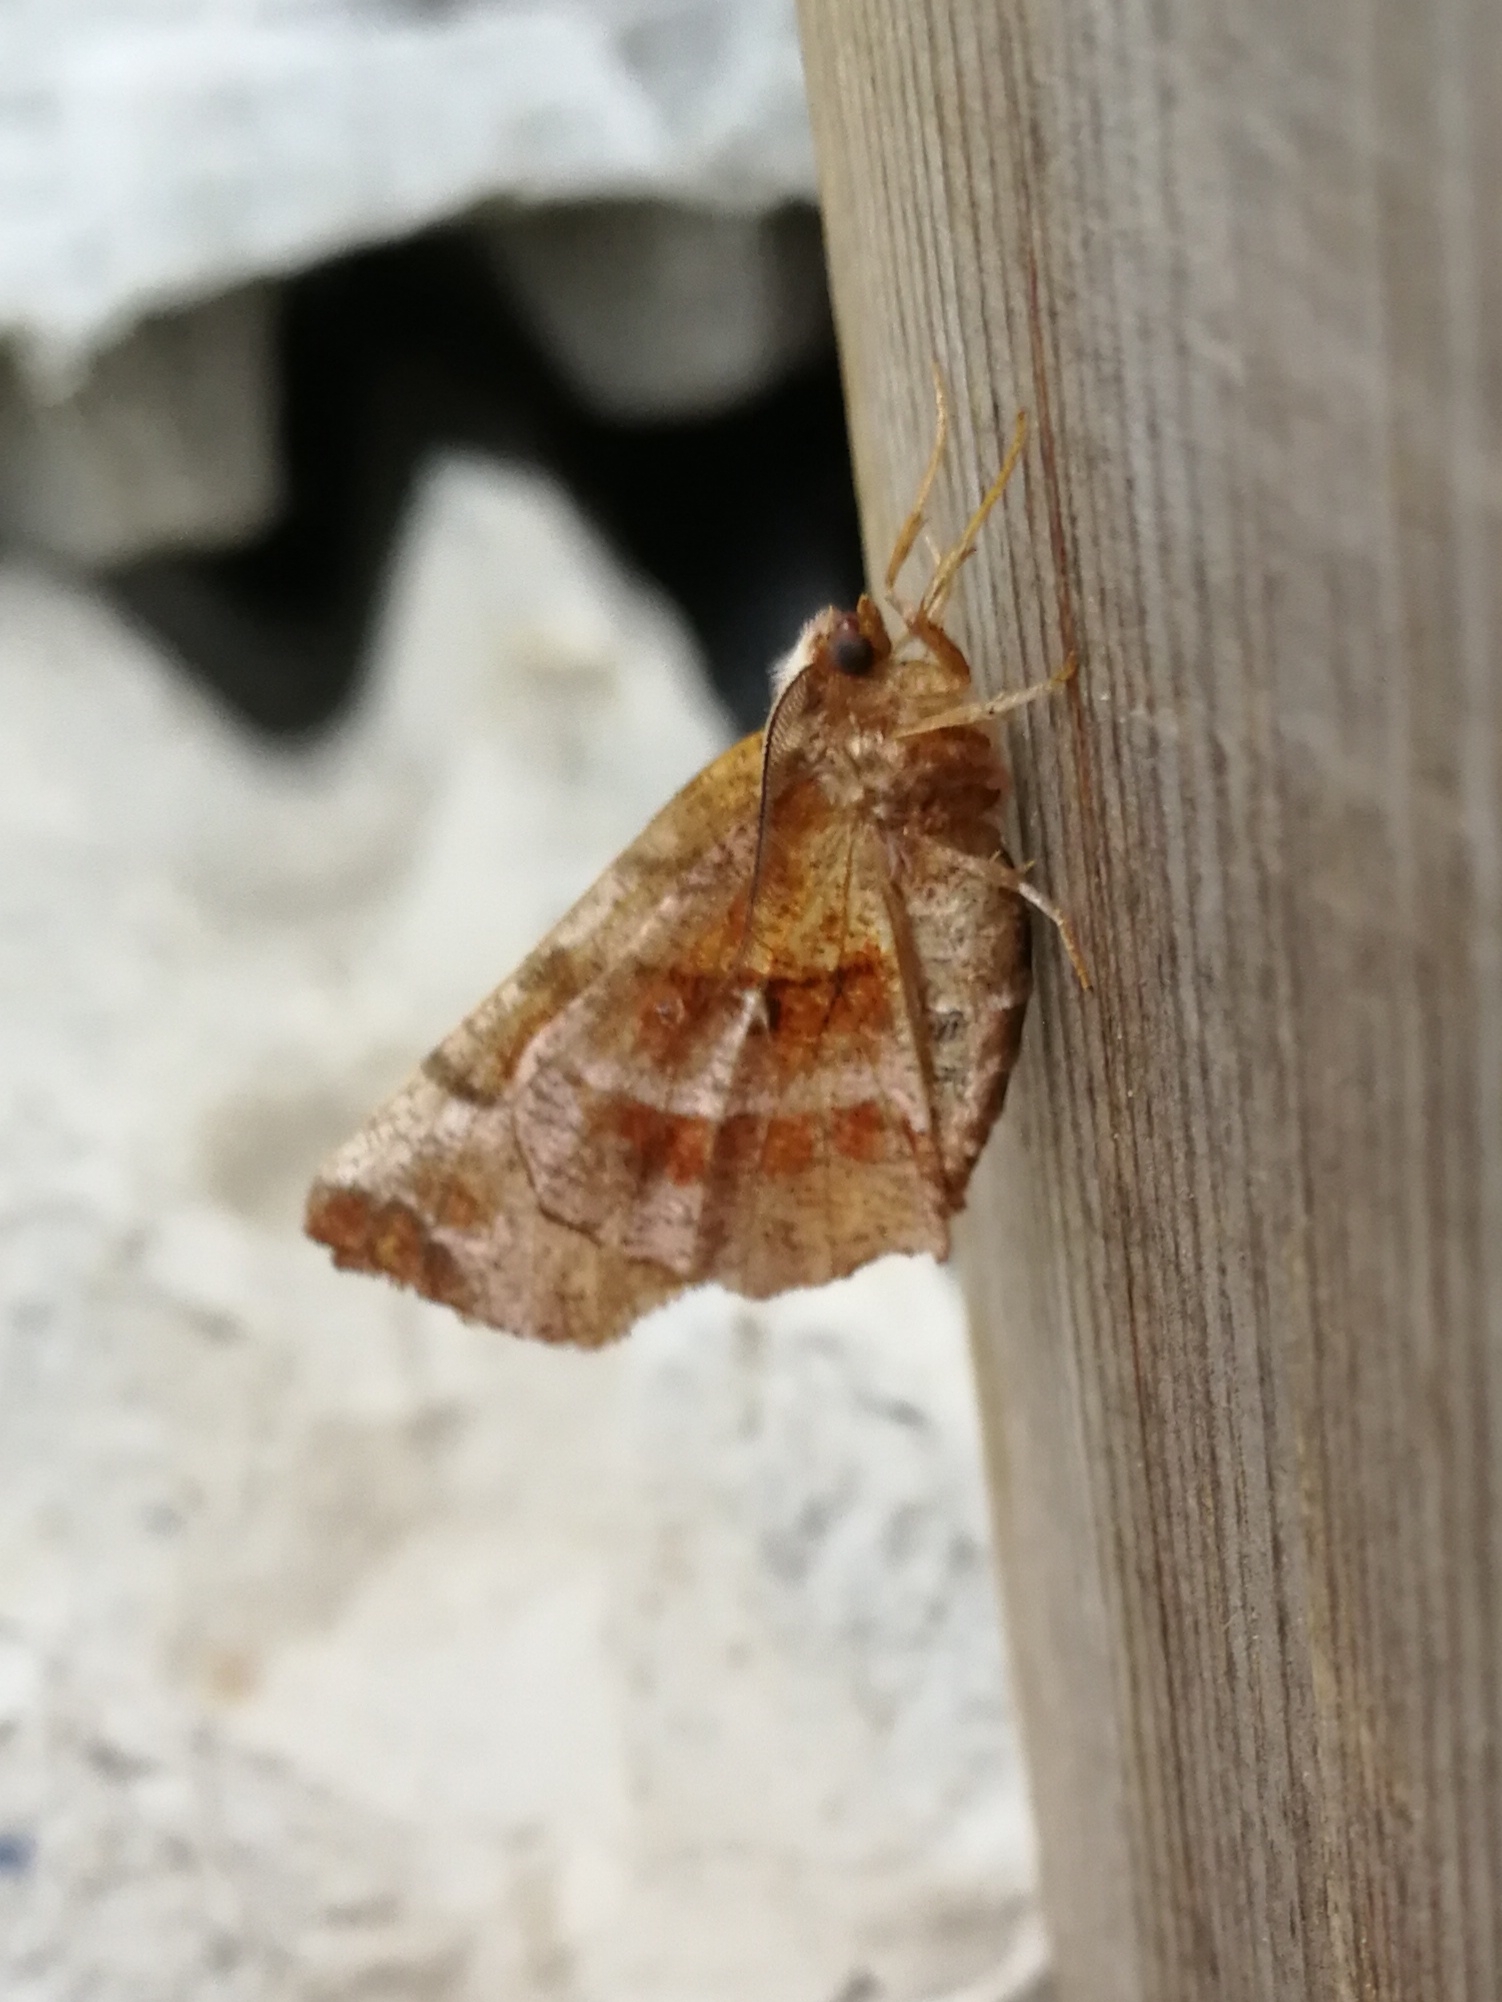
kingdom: Animalia
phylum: Arthropoda
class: Insecta
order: Lepidoptera
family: Geometridae
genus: Selenia
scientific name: Selenia dentaria
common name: Early thorn
